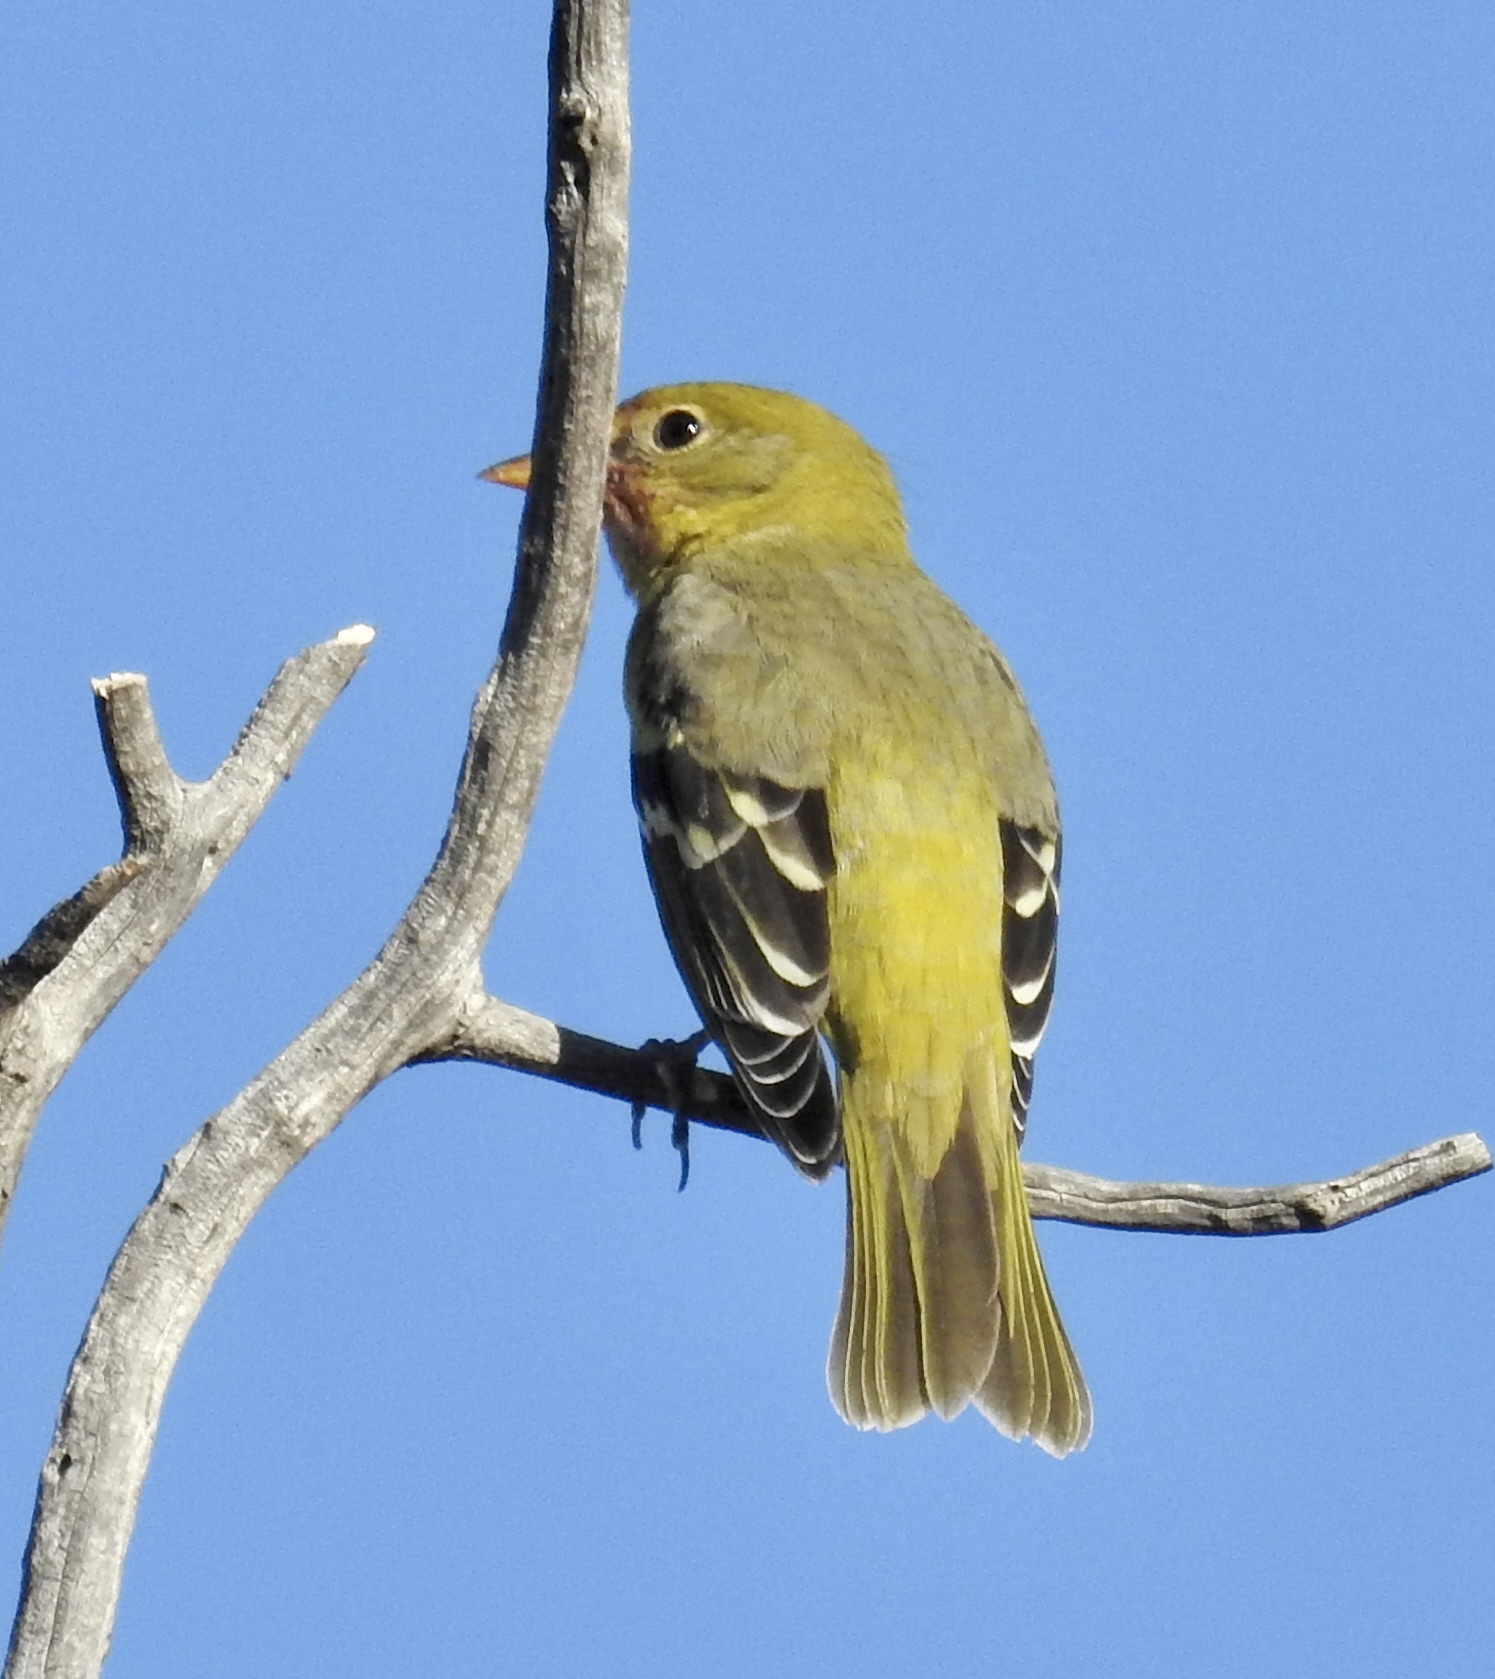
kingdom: Animalia
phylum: Chordata
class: Aves
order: Passeriformes
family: Cardinalidae
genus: Piranga
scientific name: Piranga ludoviciana
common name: Western tanager
